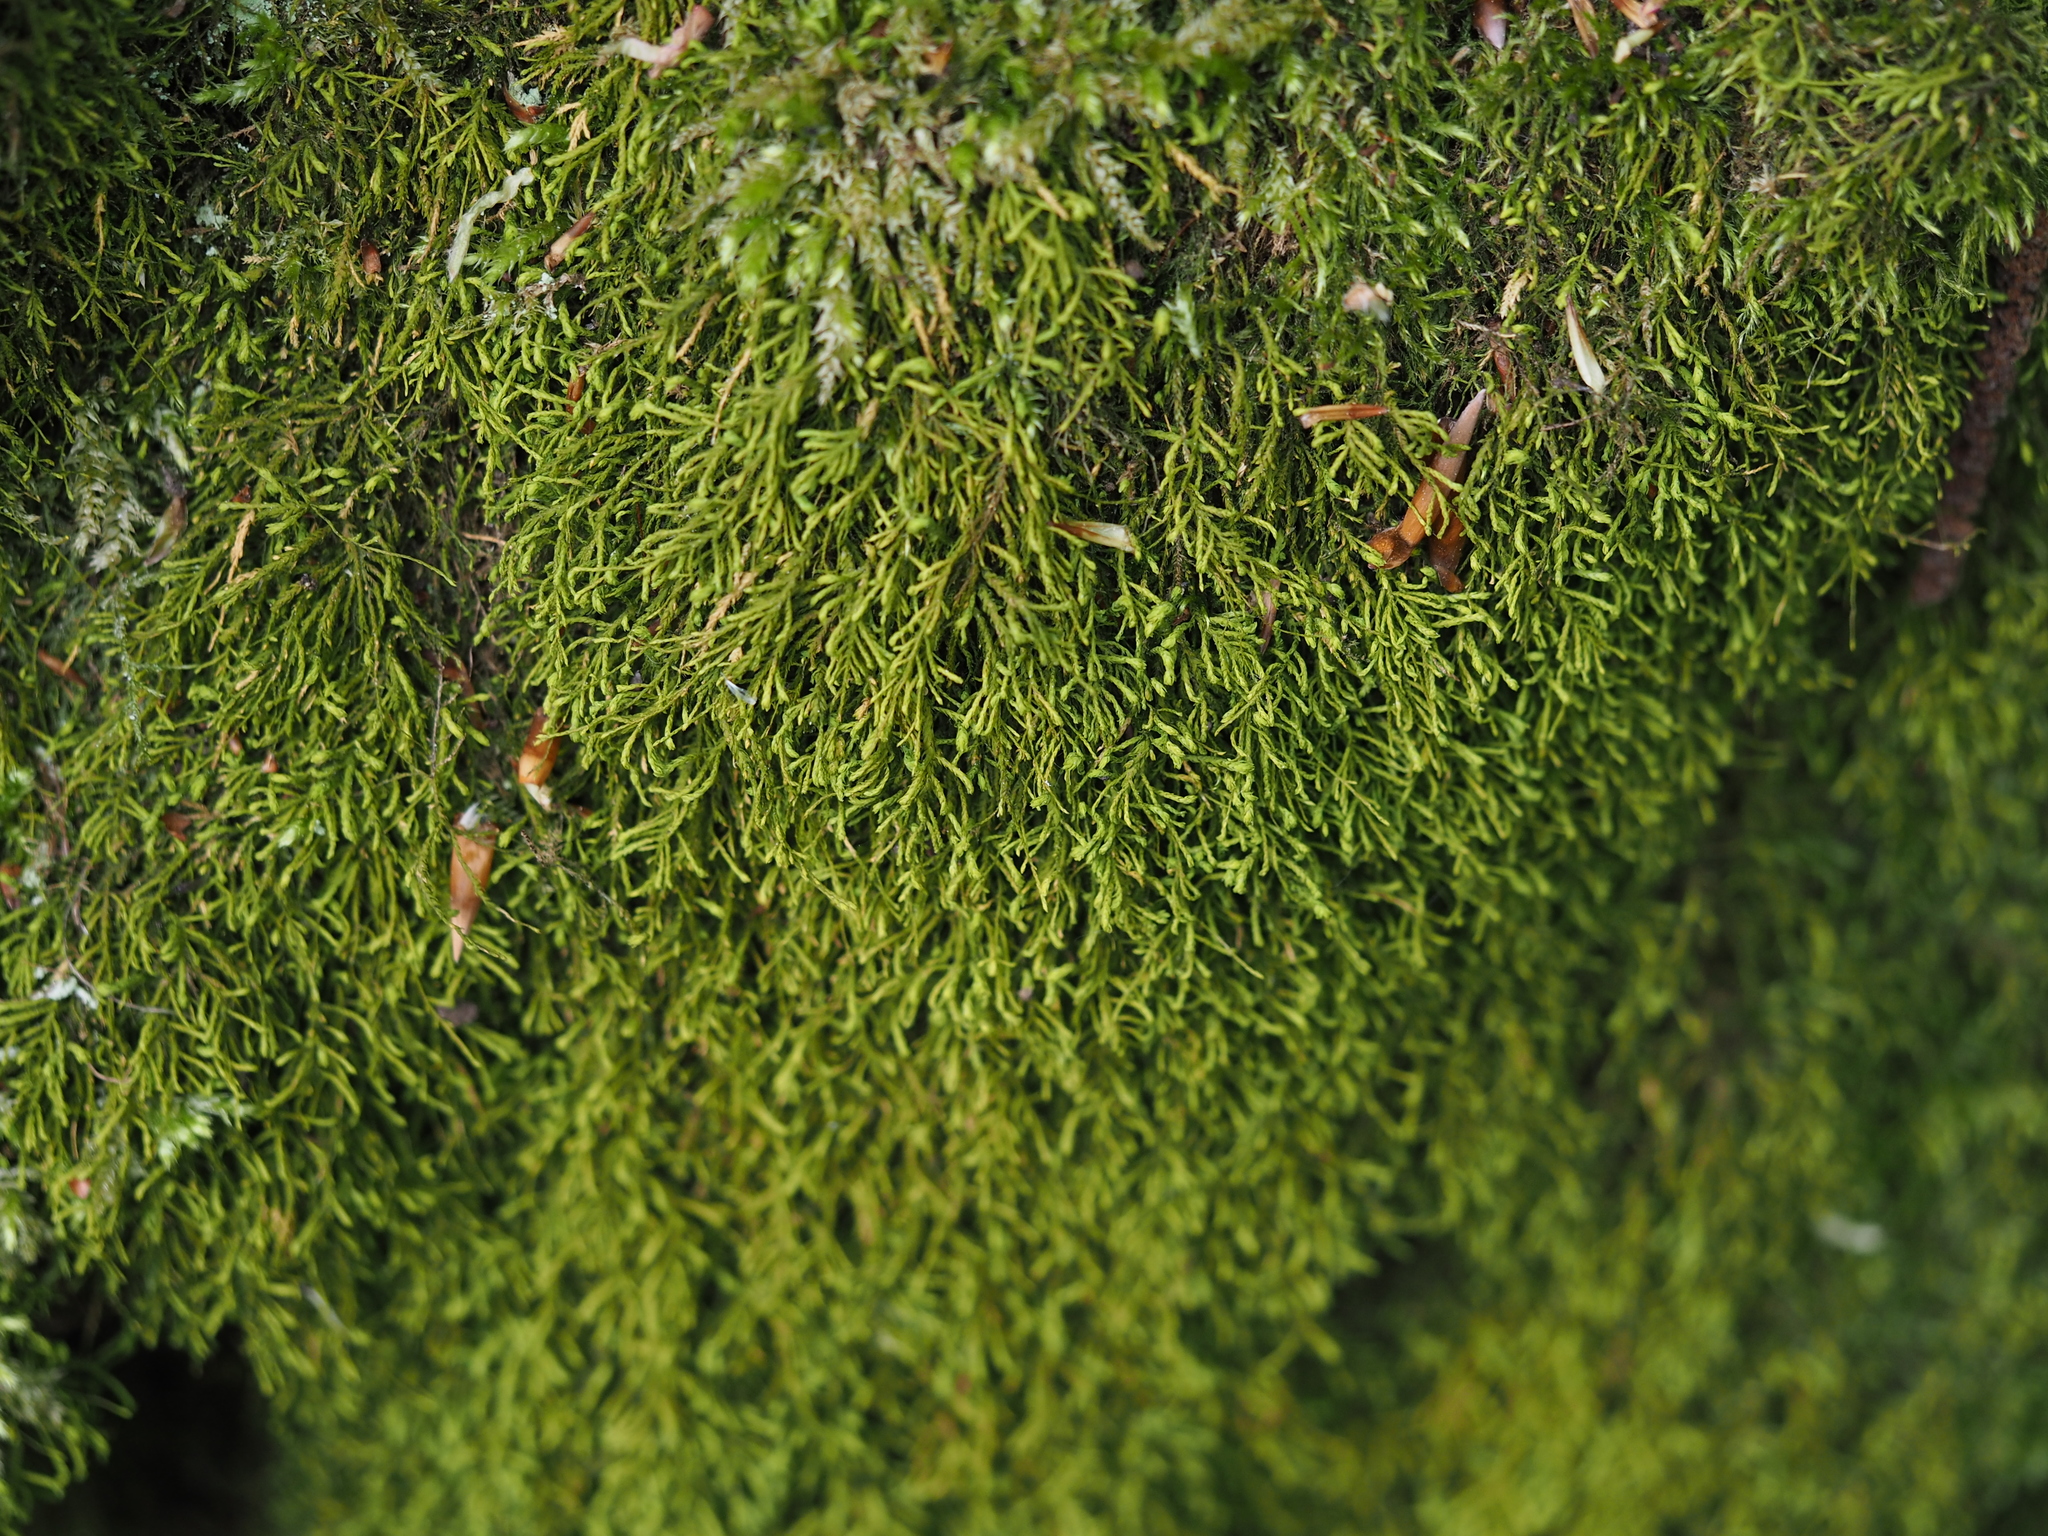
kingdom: Plantae
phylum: Bryophyta
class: Bryopsida
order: Hypnales
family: Neckeraceae
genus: Pseudanomodon
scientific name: Pseudanomodon attenuatus
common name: Tree-skirt moss
